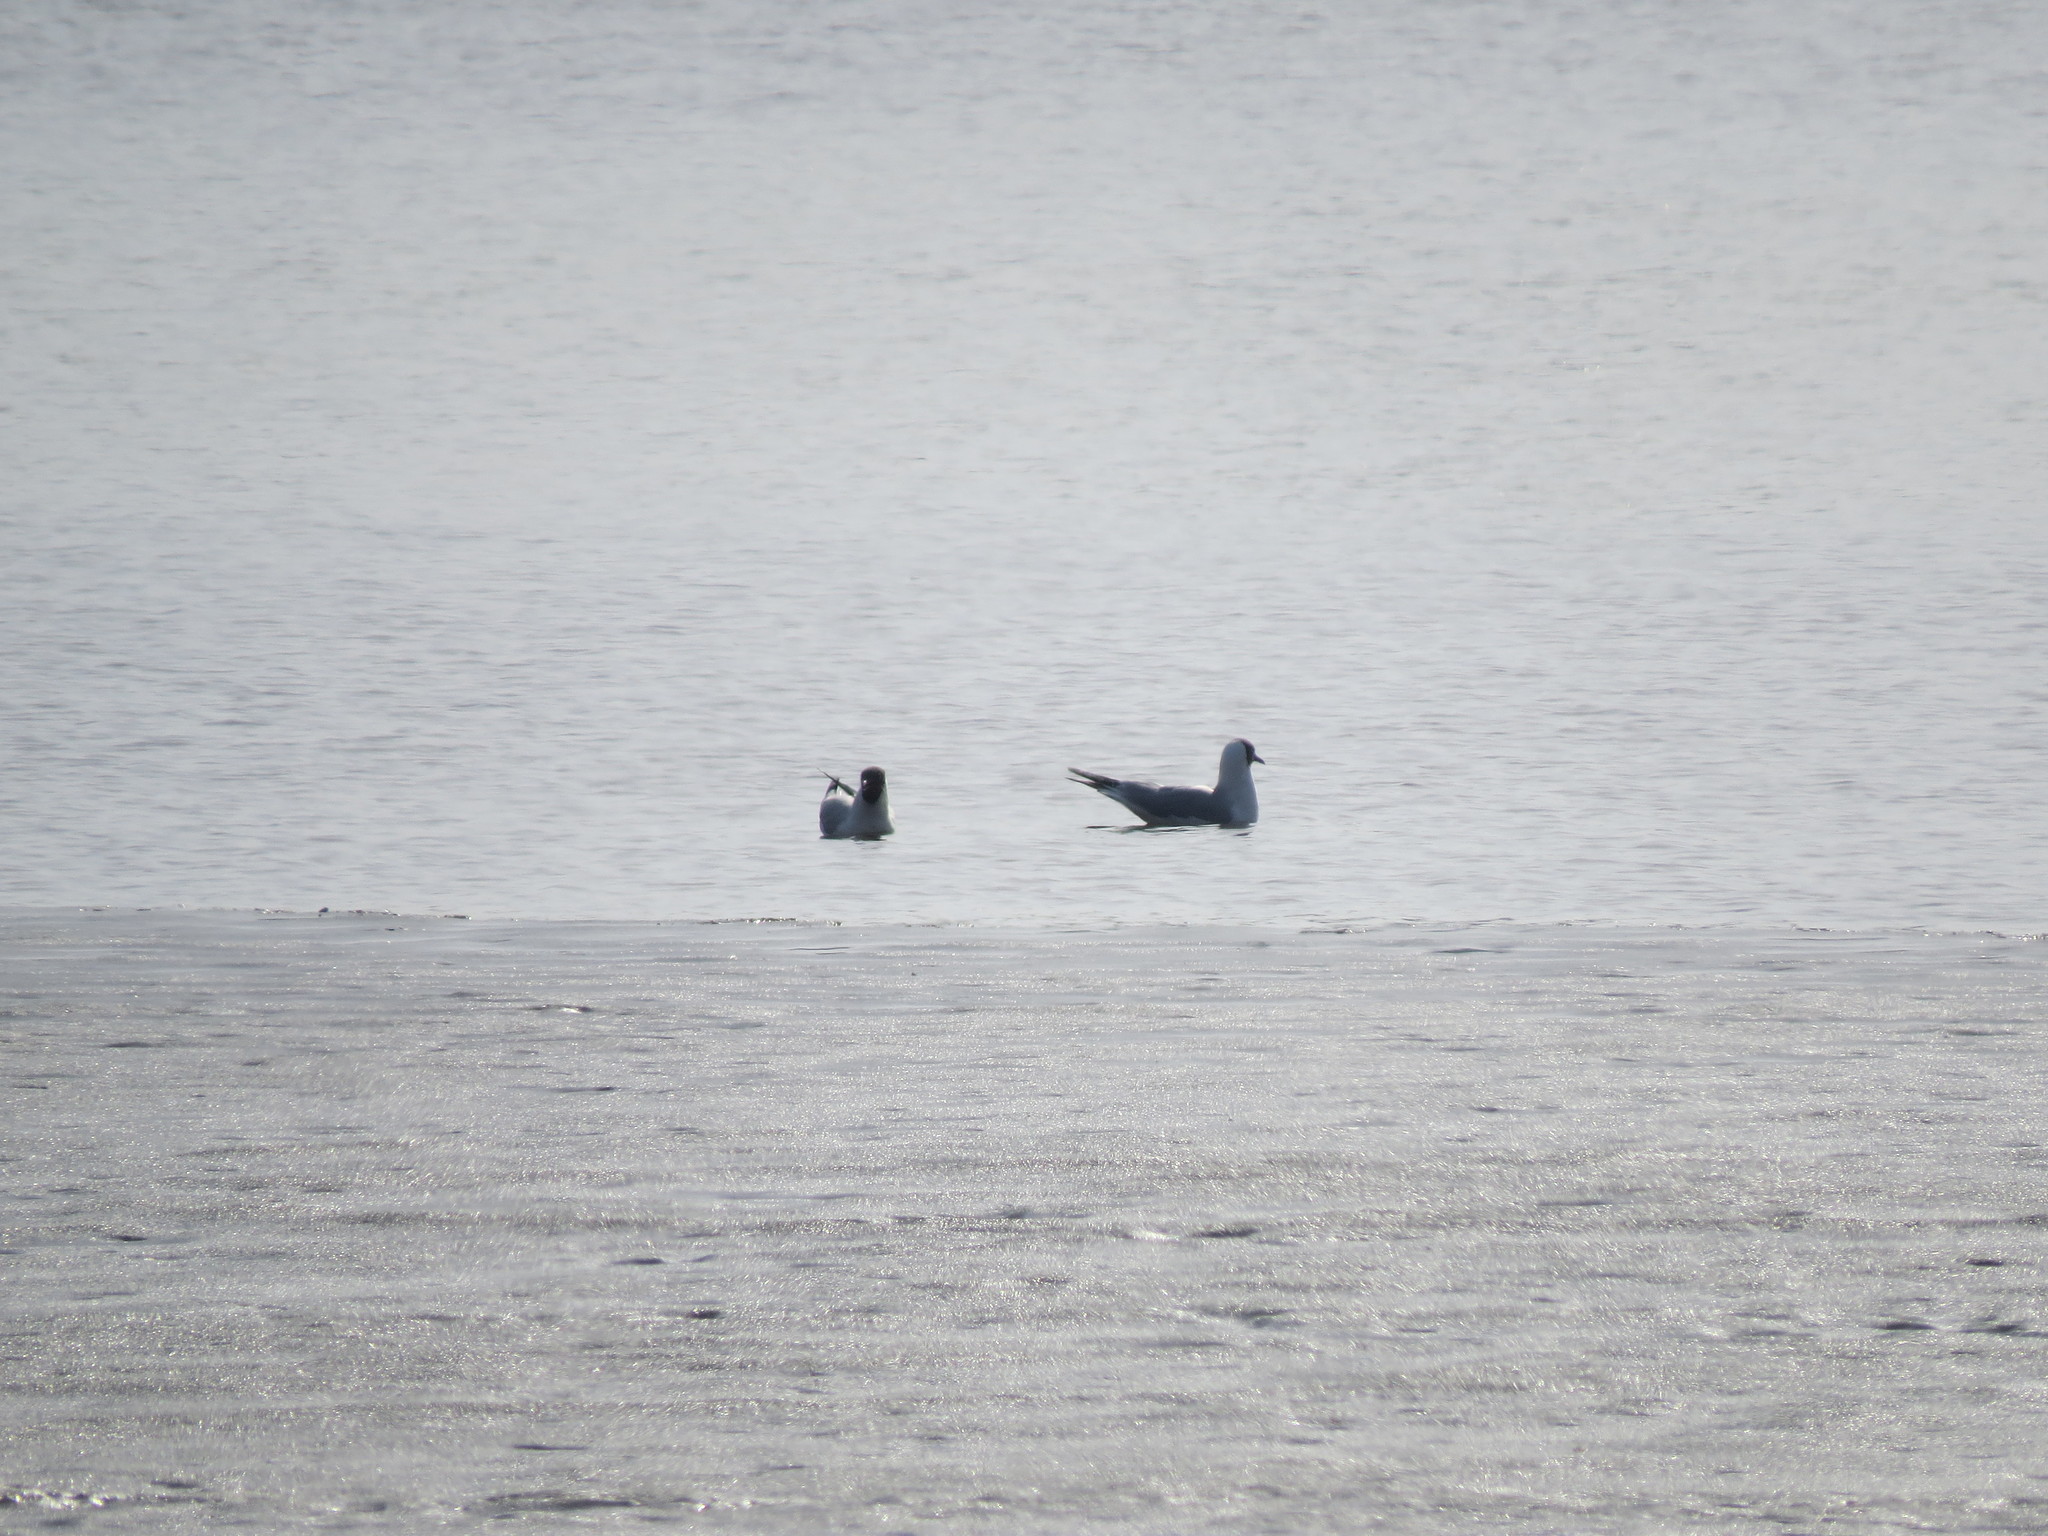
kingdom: Animalia
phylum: Chordata
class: Aves
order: Charadriiformes
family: Laridae
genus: Chroicocephalus
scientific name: Chroicocephalus ridibundus
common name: Black-headed gull
